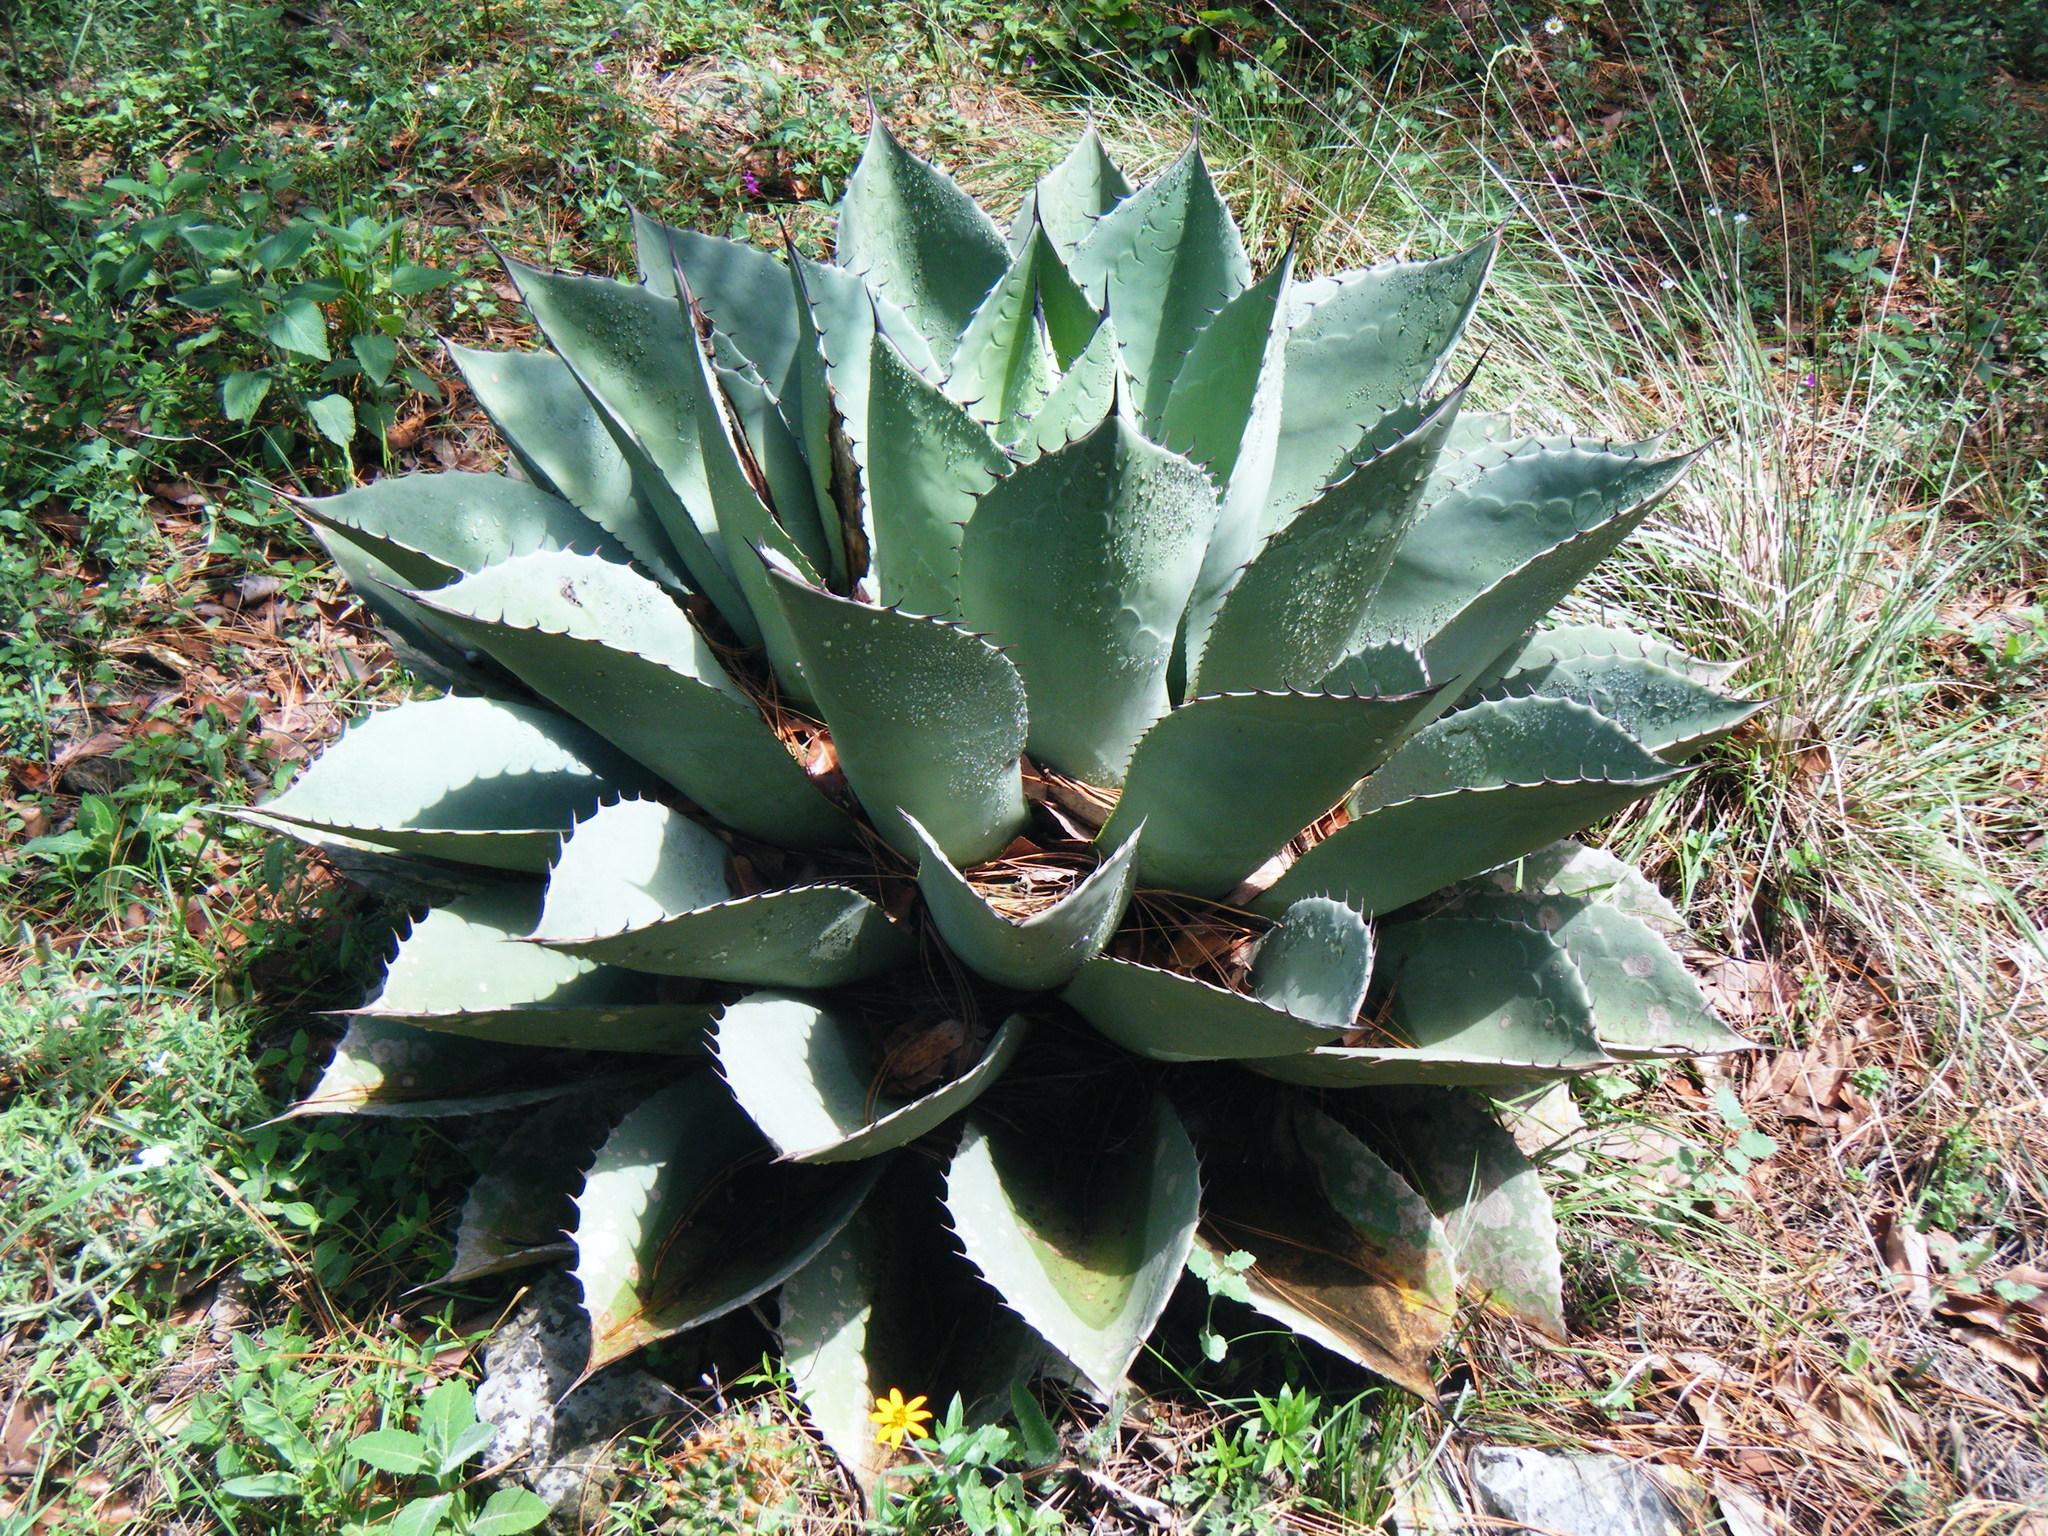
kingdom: Plantae
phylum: Tracheophyta
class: Liliopsida
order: Asparagales
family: Asparagaceae
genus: Agave
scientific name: Agave ovatifolia
